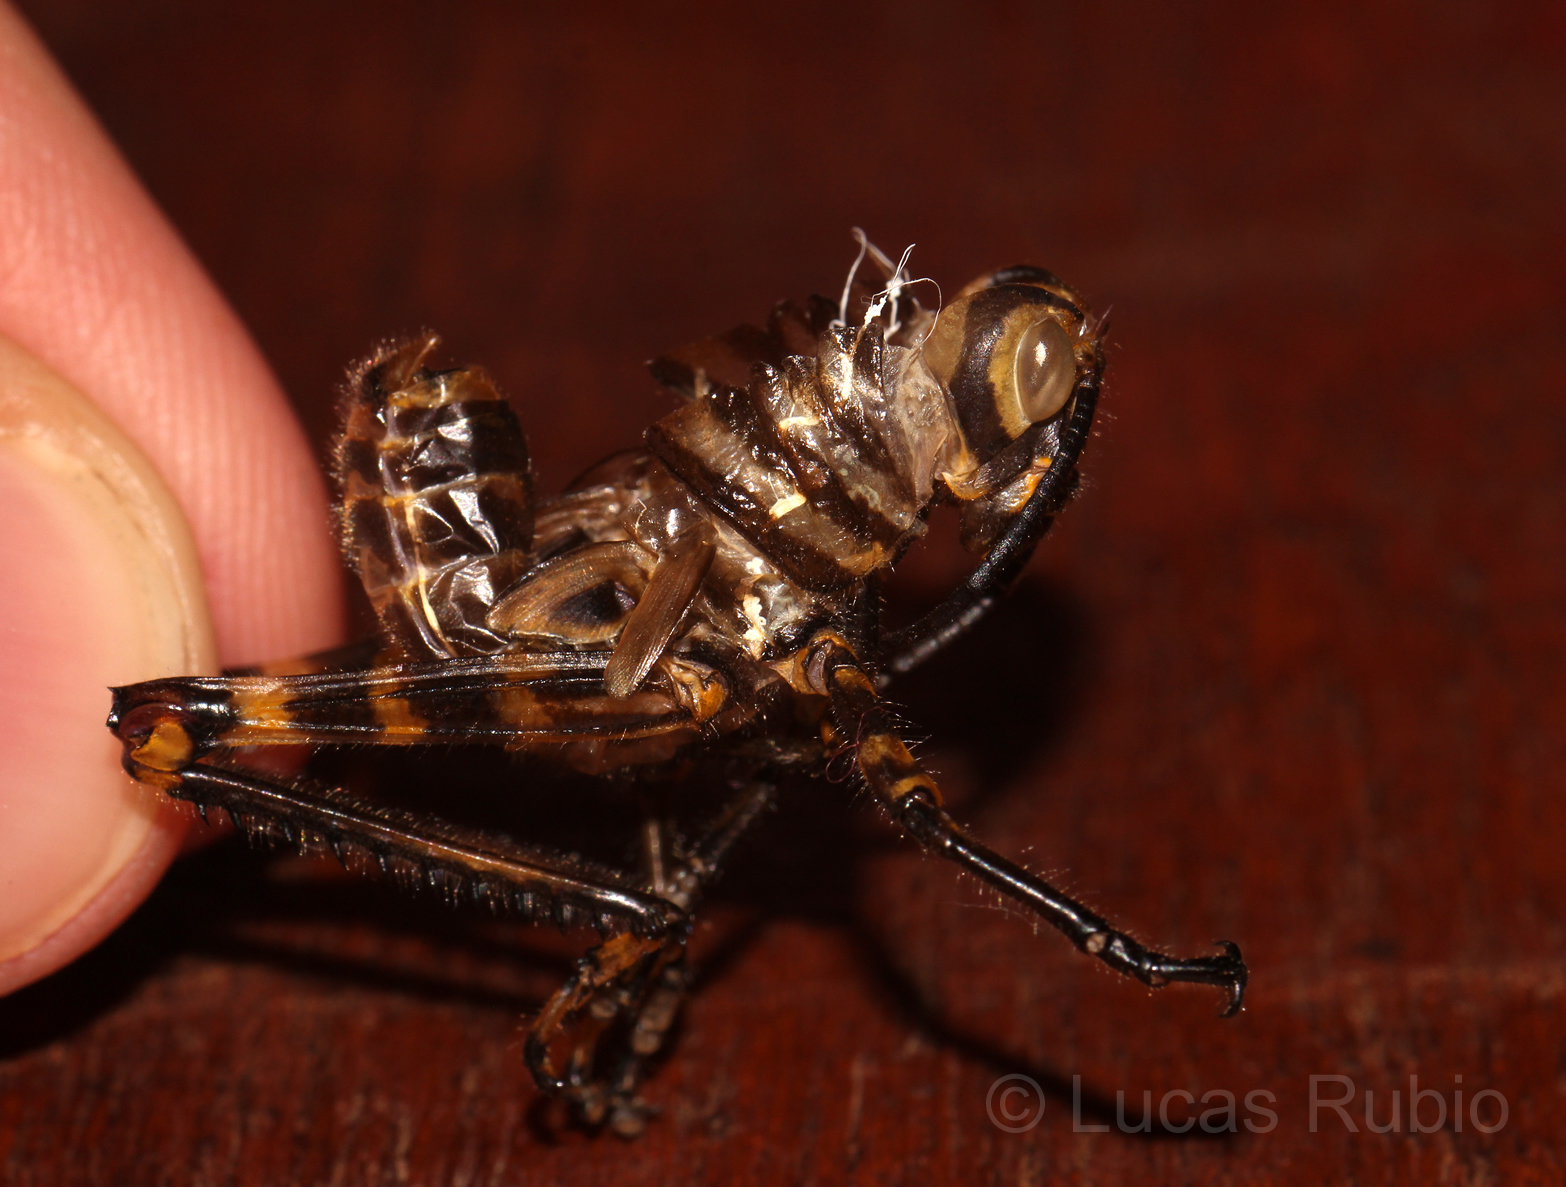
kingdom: Animalia
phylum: Arthropoda
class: Insecta
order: Orthoptera
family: Romaleidae
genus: Tropidacris
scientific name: Tropidacris cristata
